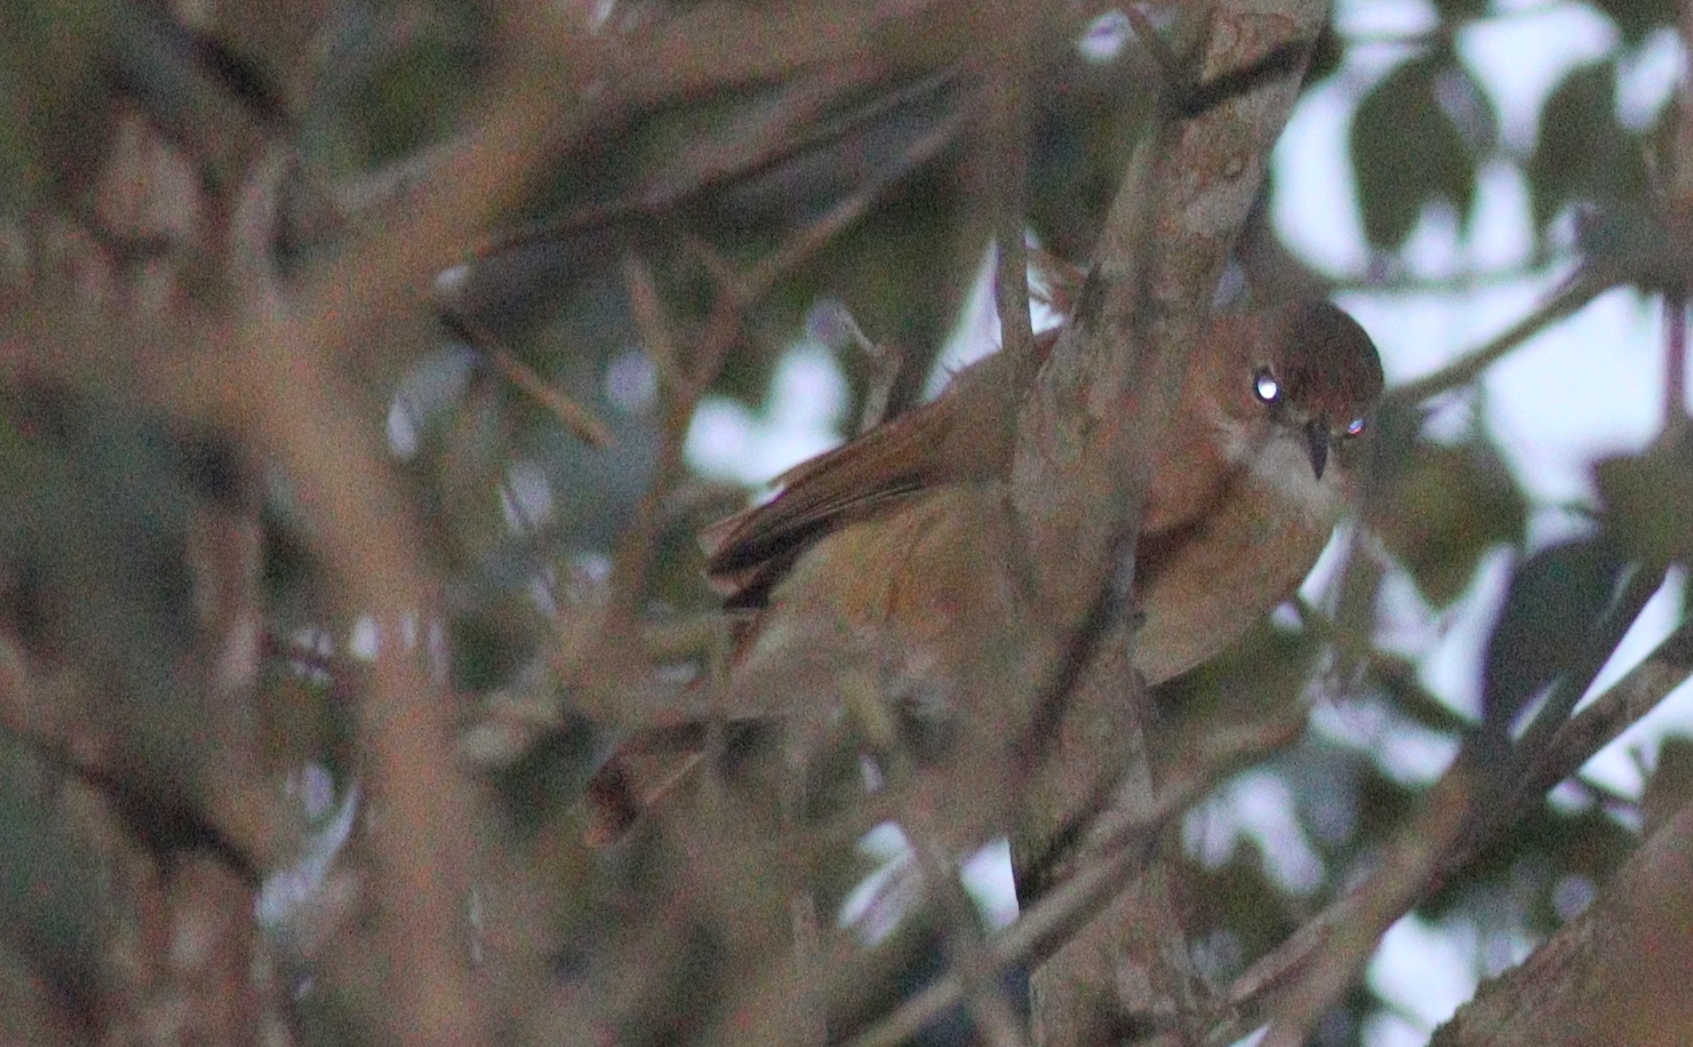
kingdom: Animalia
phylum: Chordata
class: Aves
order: Passeriformes
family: Furnariidae
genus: Furnarius
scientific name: Furnarius rufus
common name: Rufous hornero
